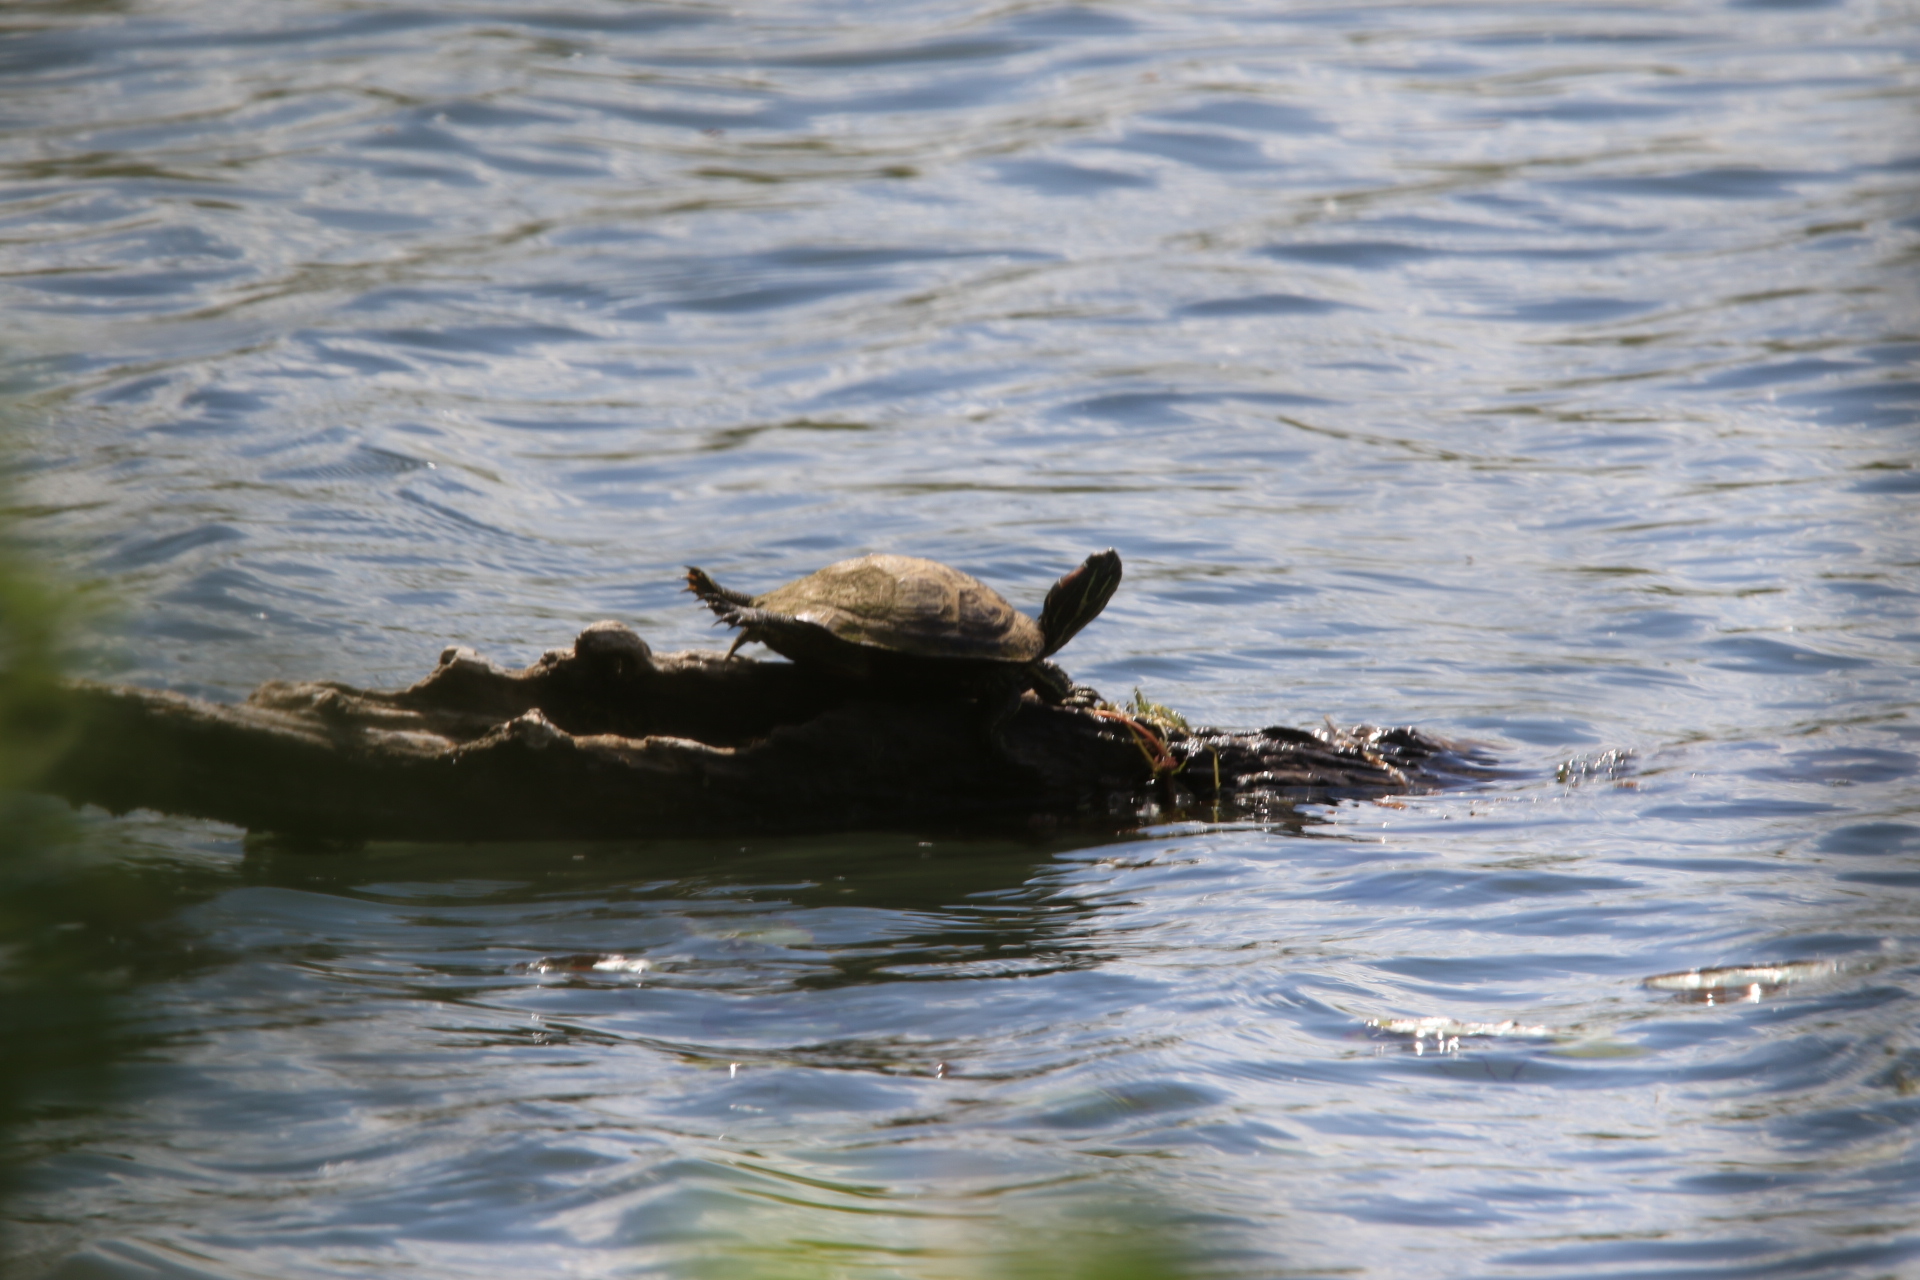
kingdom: Animalia
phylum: Chordata
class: Testudines
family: Emydidae
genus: Trachemys
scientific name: Trachemys scripta
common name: Slider
